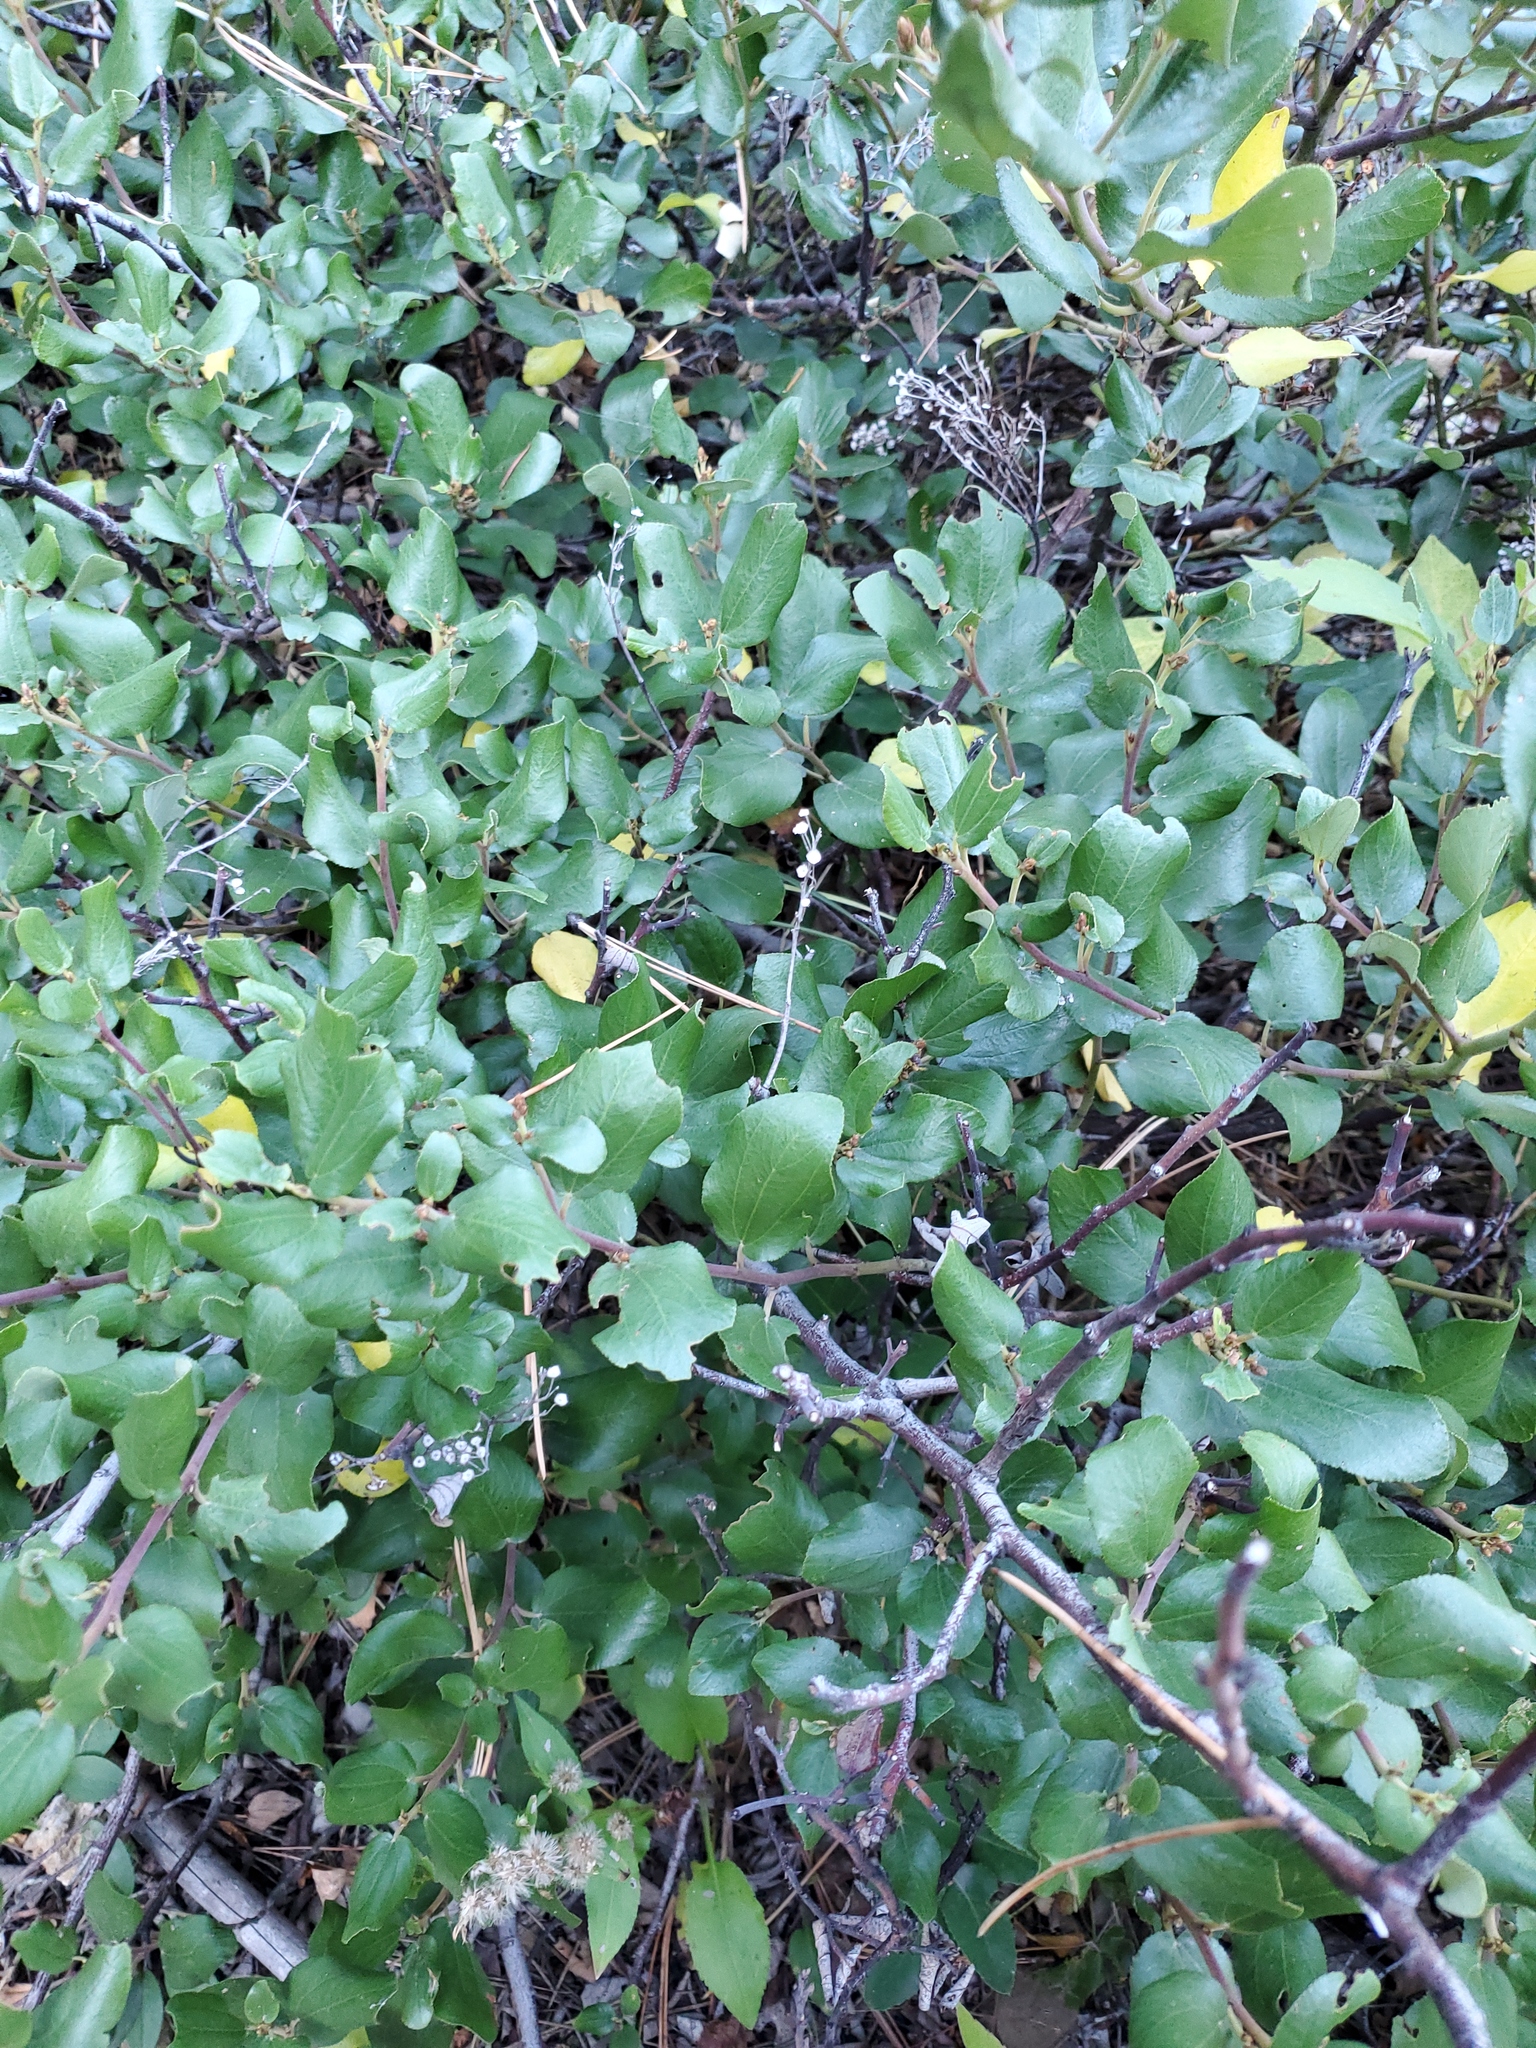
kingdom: Plantae
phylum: Tracheophyta
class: Magnoliopsida
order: Rosales
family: Rhamnaceae
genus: Ceanothus
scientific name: Ceanothus velutinus
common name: Snowbrush
